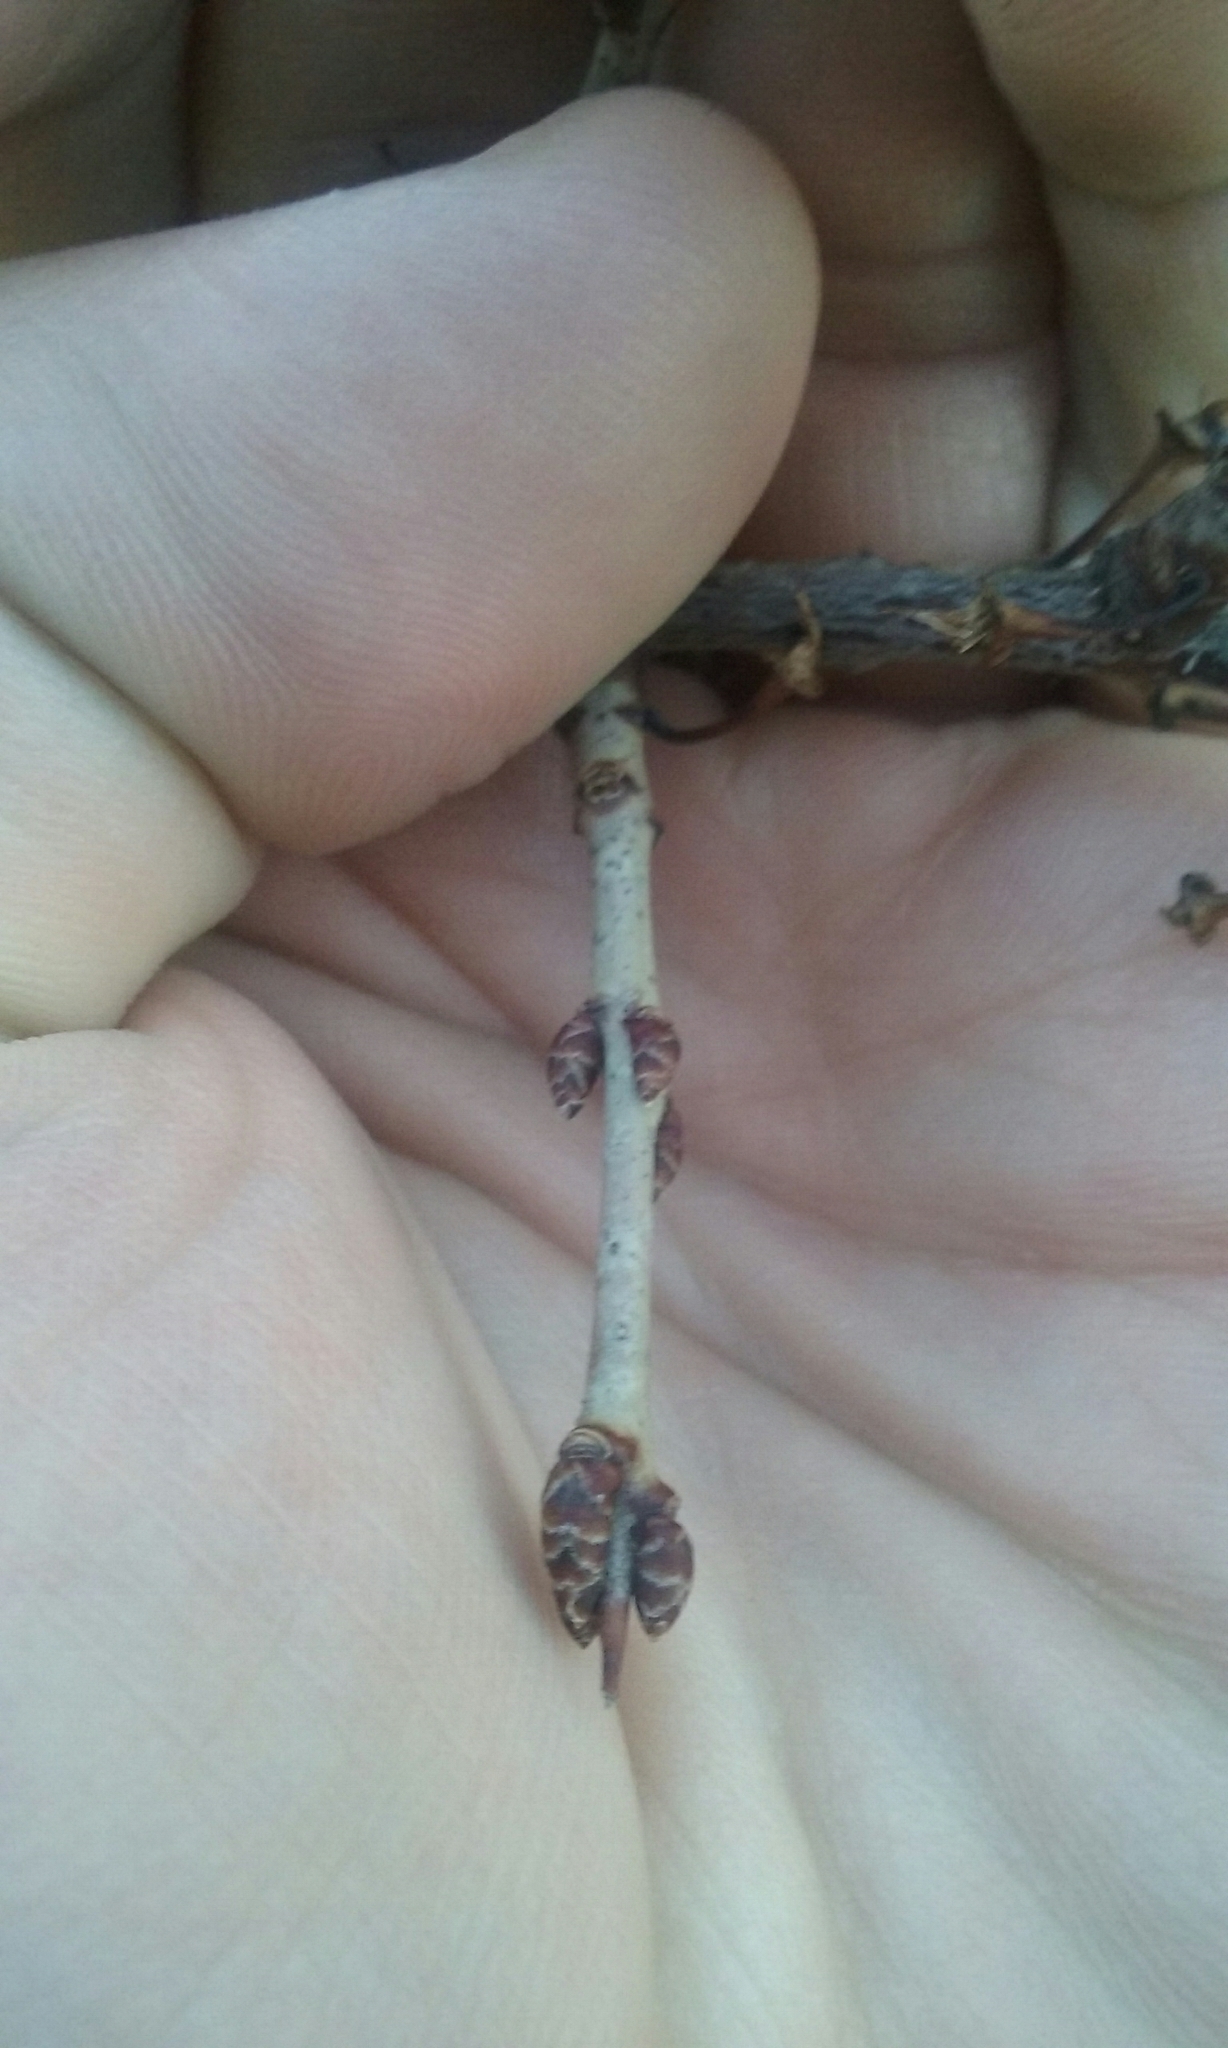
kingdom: Plantae
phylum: Tracheophyta
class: Magnoliopsida
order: Rosales
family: Rhamnaceae
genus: Rhamnus
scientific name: Rhamnus cathartica
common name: Common buckthorn
